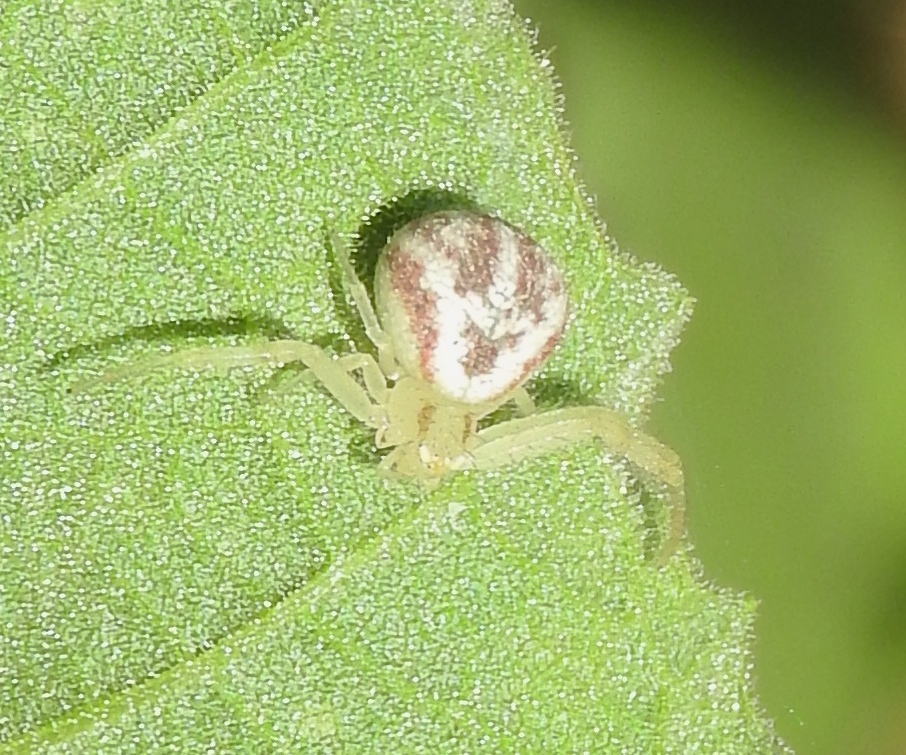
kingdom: Animalia
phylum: Arthropoda
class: Arachnida
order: Araneae
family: Thomisidae
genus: Mecaphesa
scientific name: Mecaphesa
